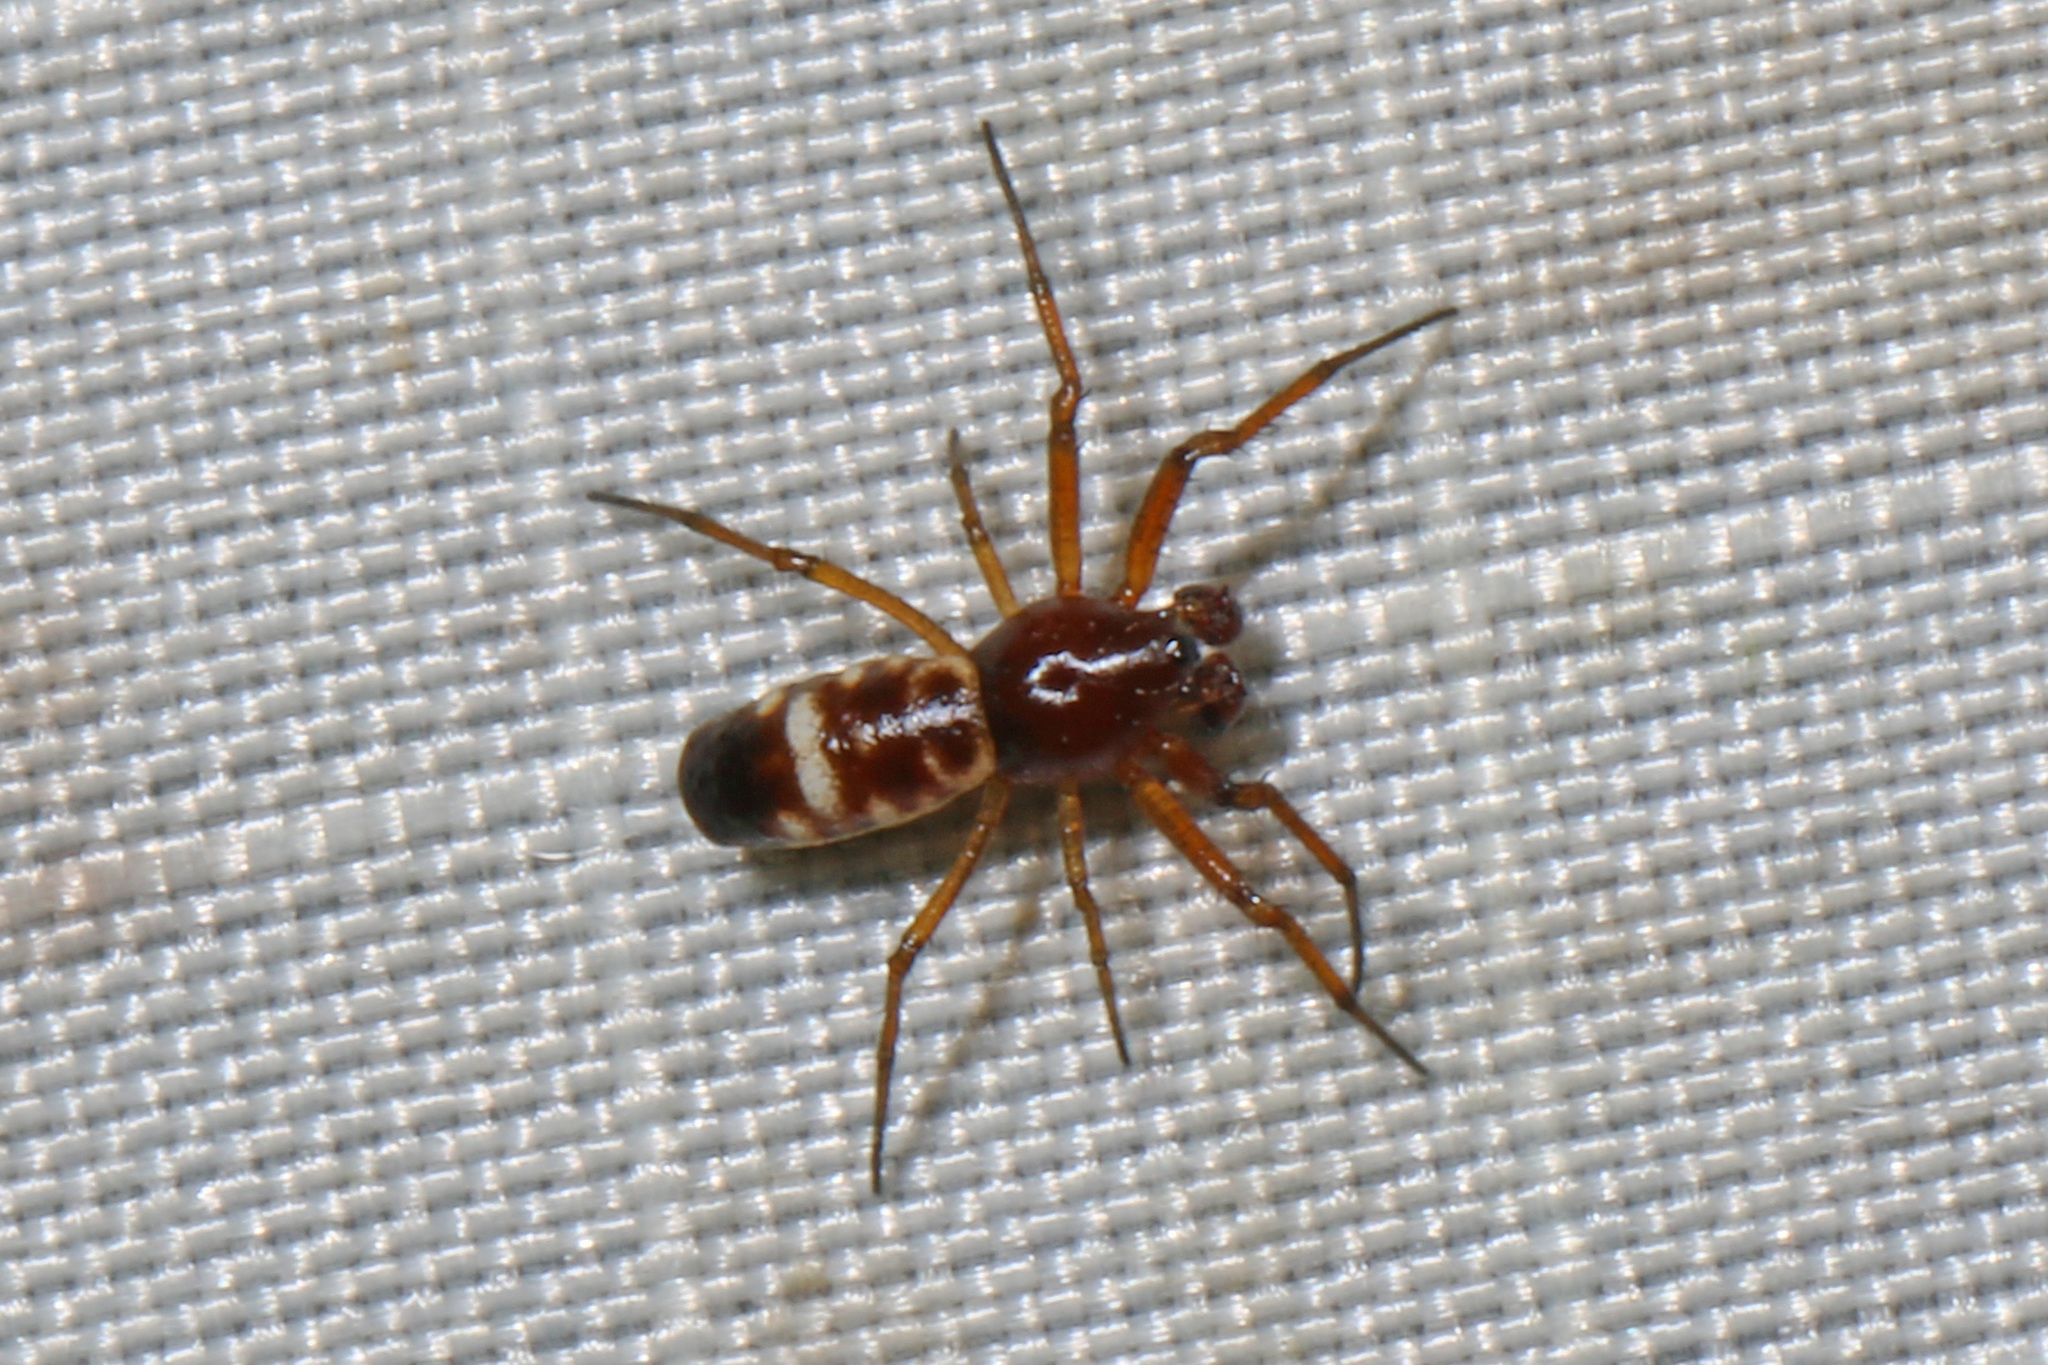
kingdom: Animalia
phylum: Arthropoda
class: Arachnida
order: Araneae
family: Araneidae
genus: Micrathena
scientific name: Micrathena mitrata
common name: Orb weavers
